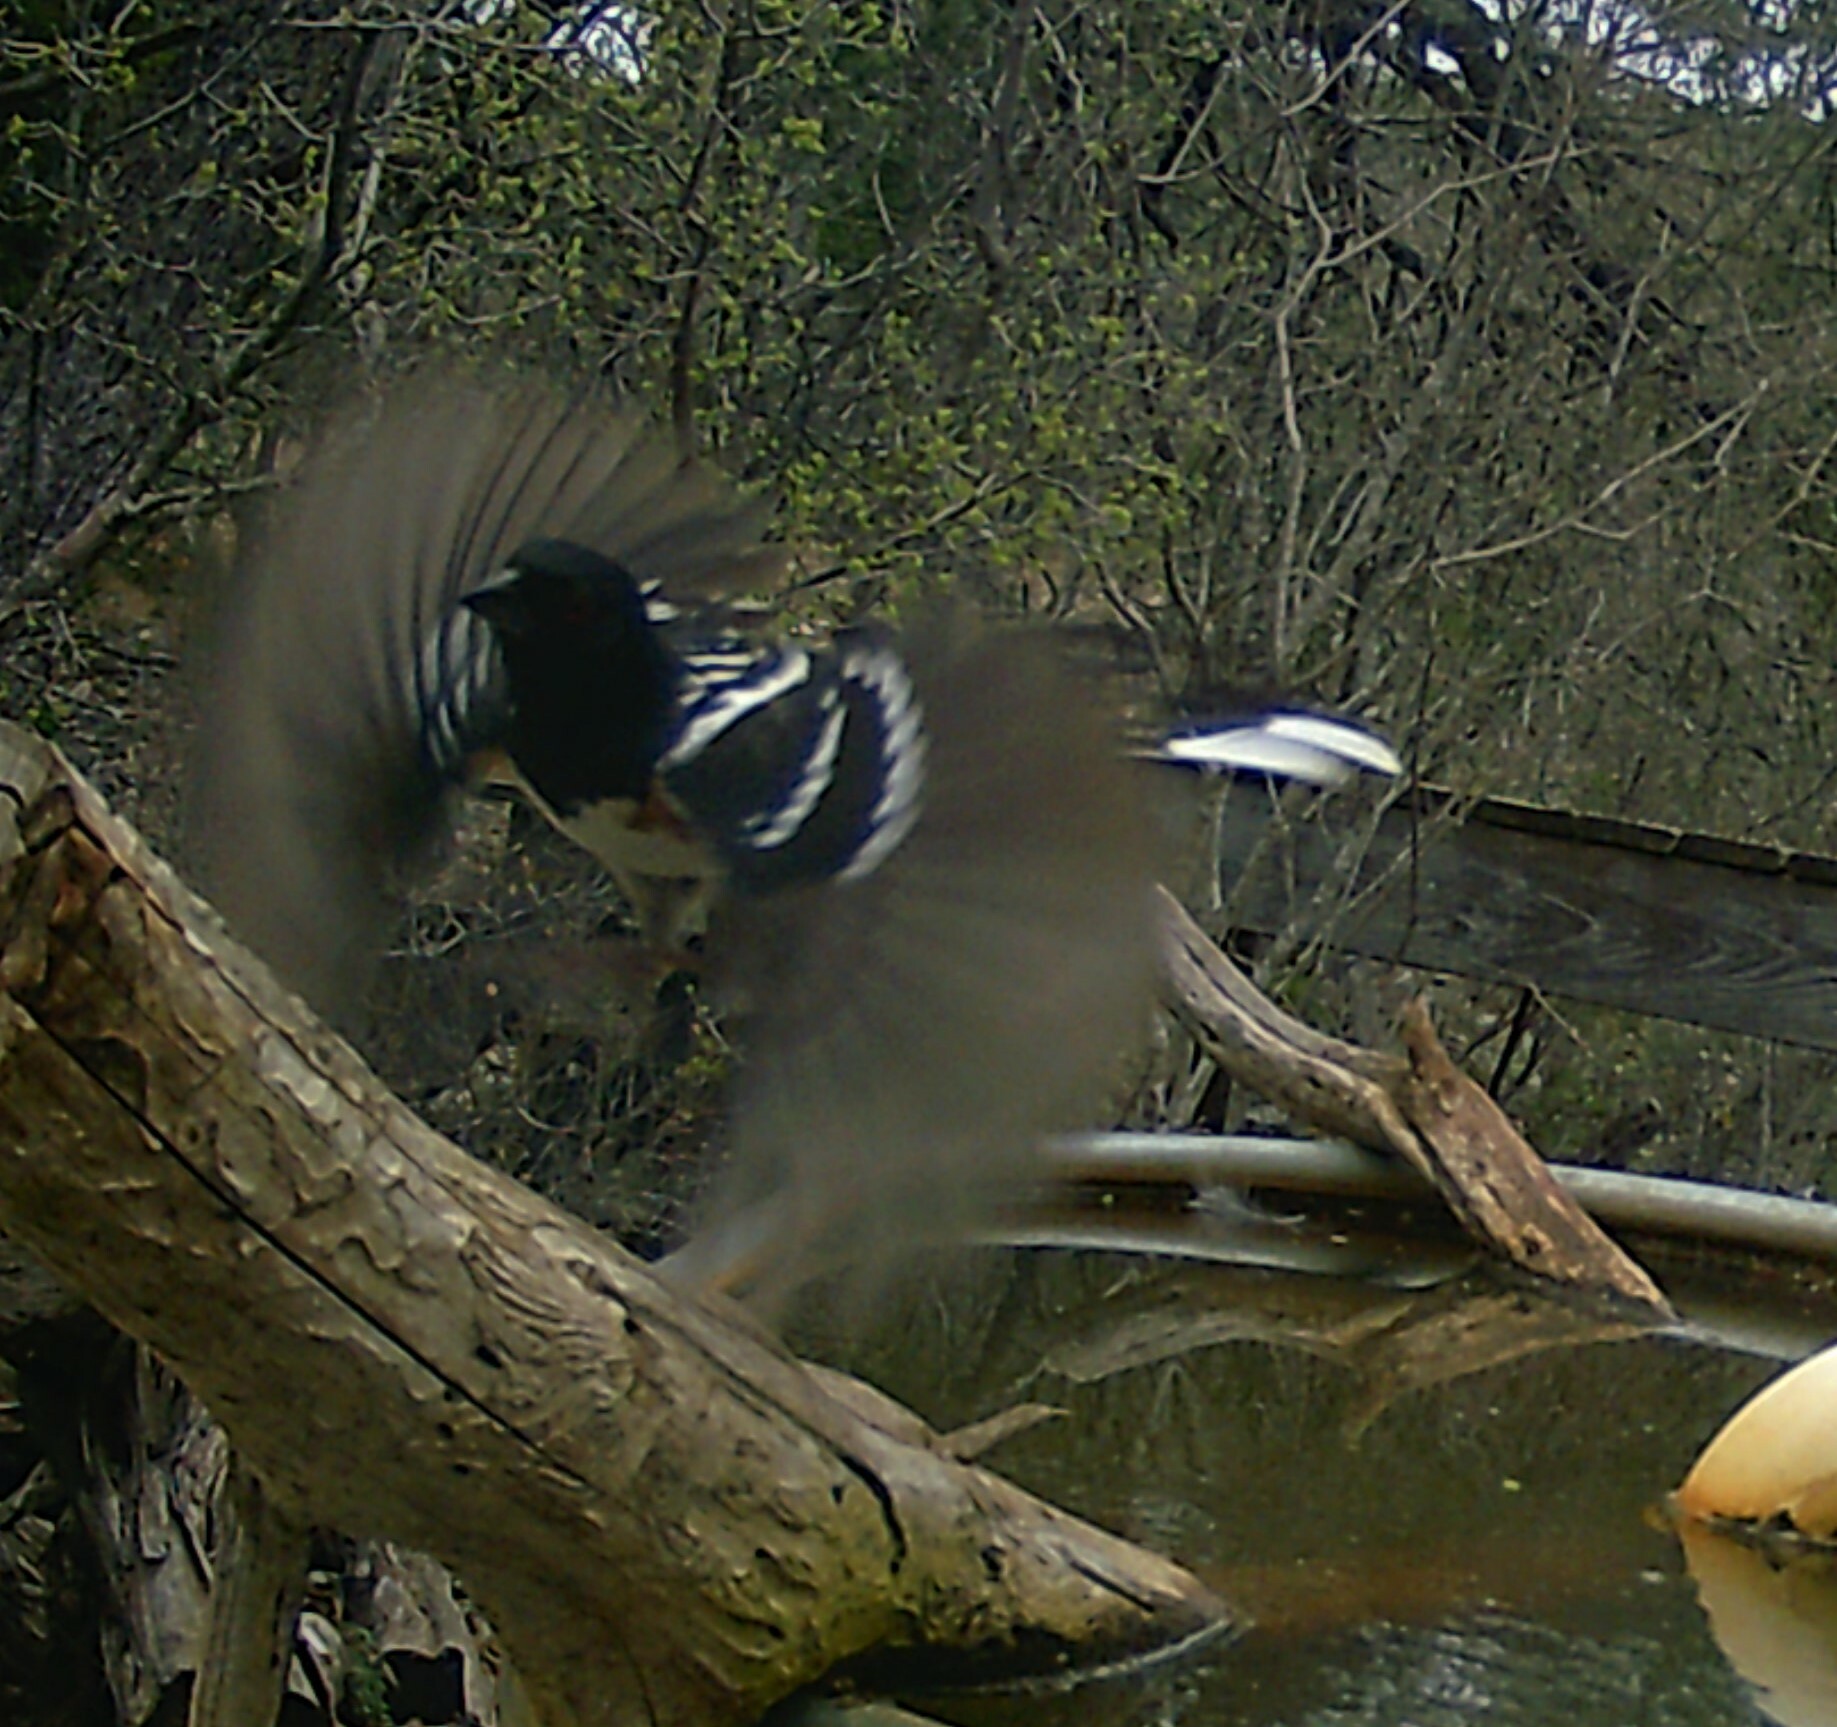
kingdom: Animalia
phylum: Chordata
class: Aves
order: Passeriformes
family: Passerellidae
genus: Pipilo
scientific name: Pipilo maculatus
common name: Spotted towhee
